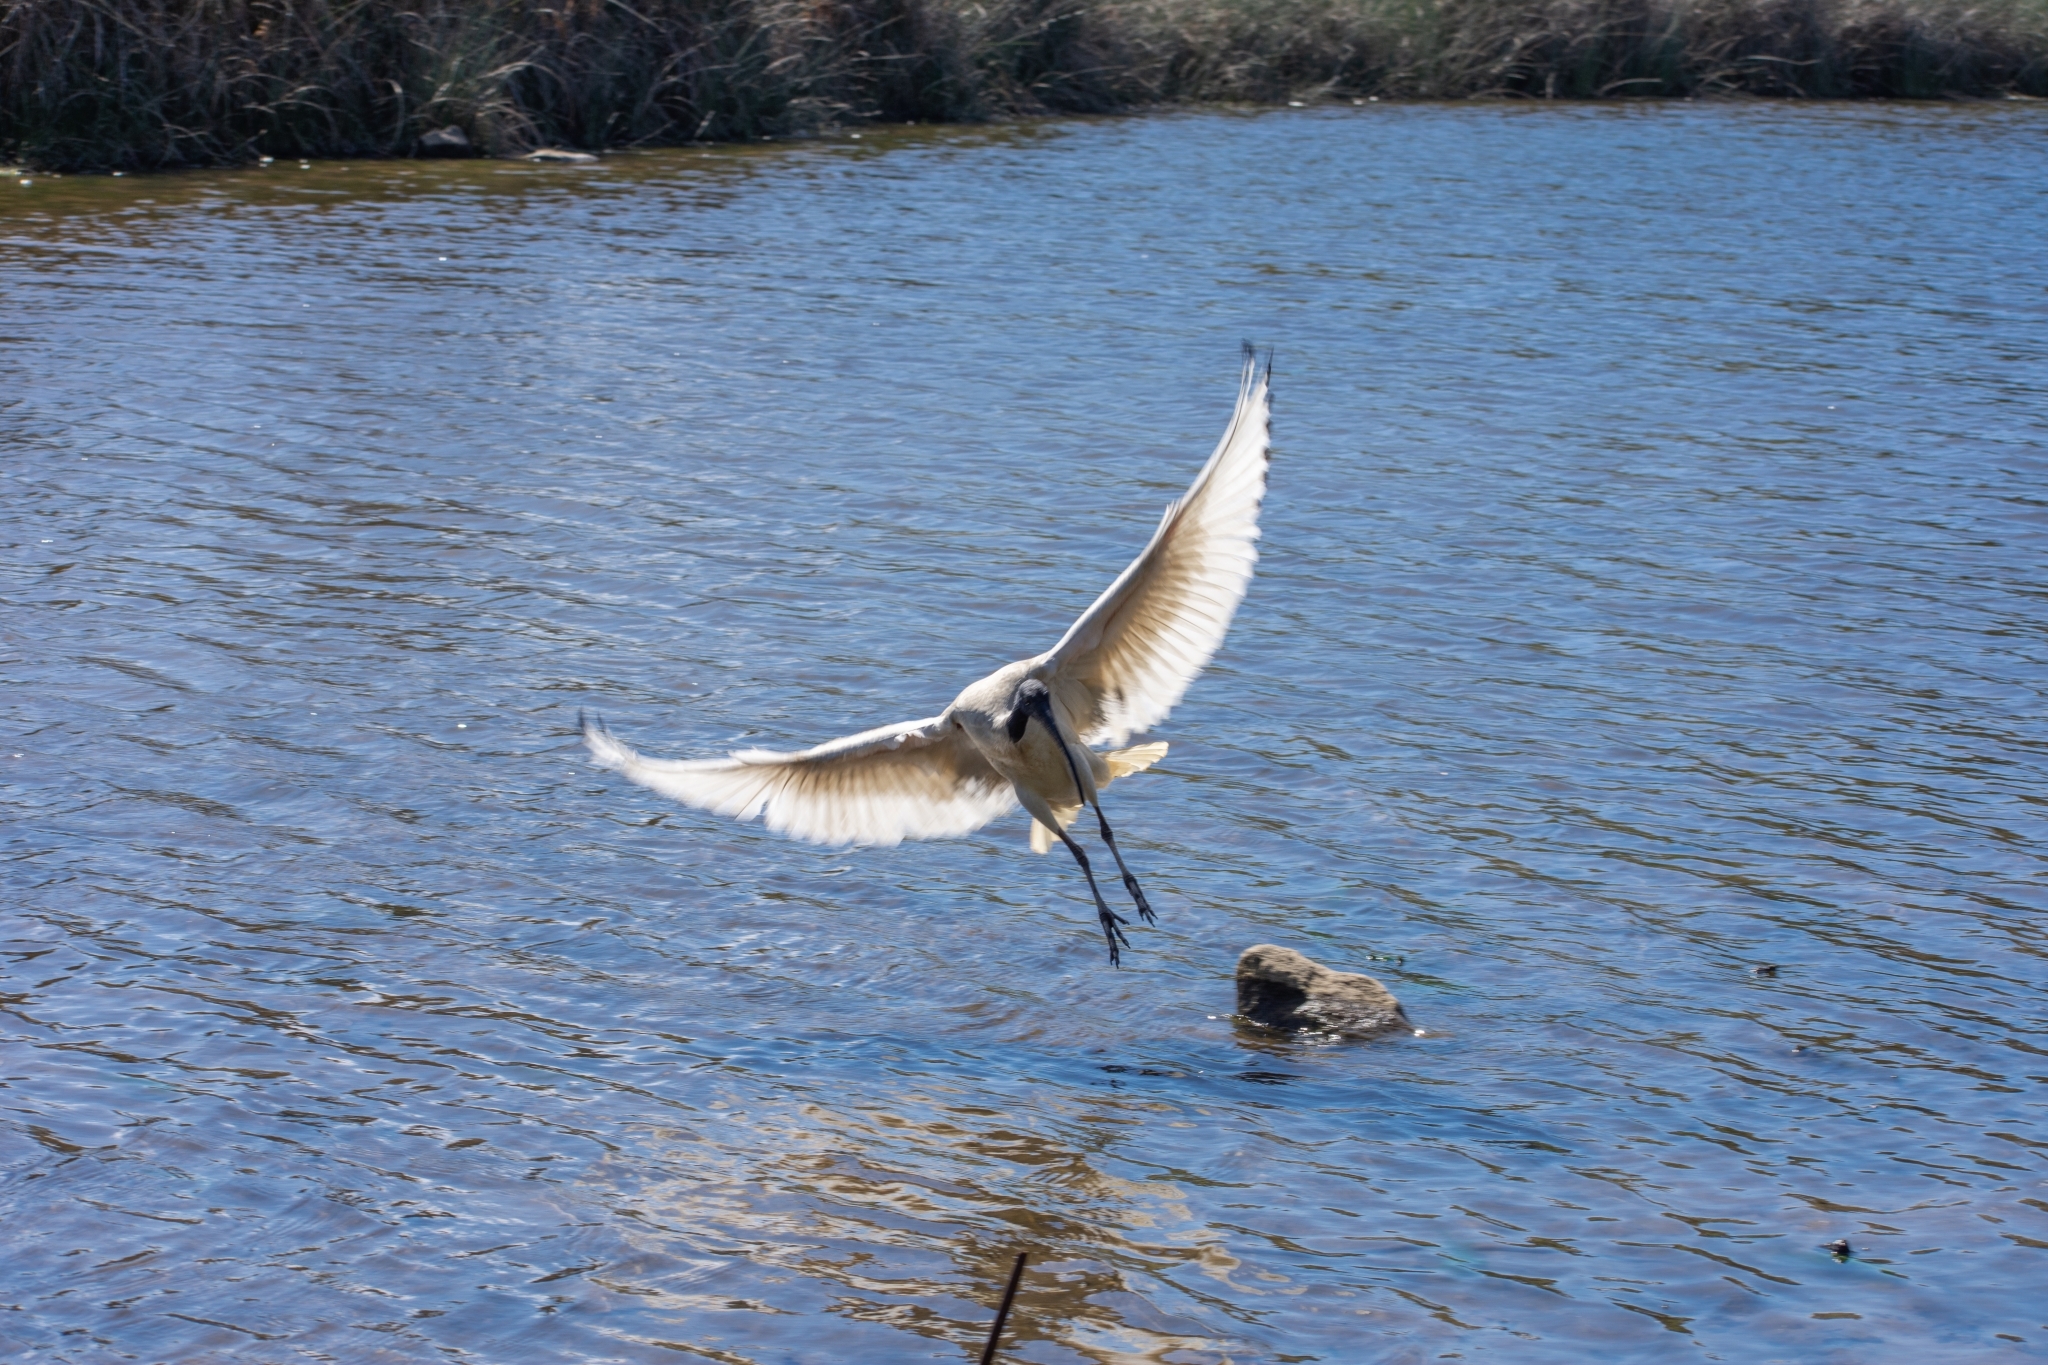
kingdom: Animalia
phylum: Chordata
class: Aves
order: Pelecaniformes
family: Threskiornithidae
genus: Threskiornis
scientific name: Threskiornis molucca
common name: Australian white ibis
